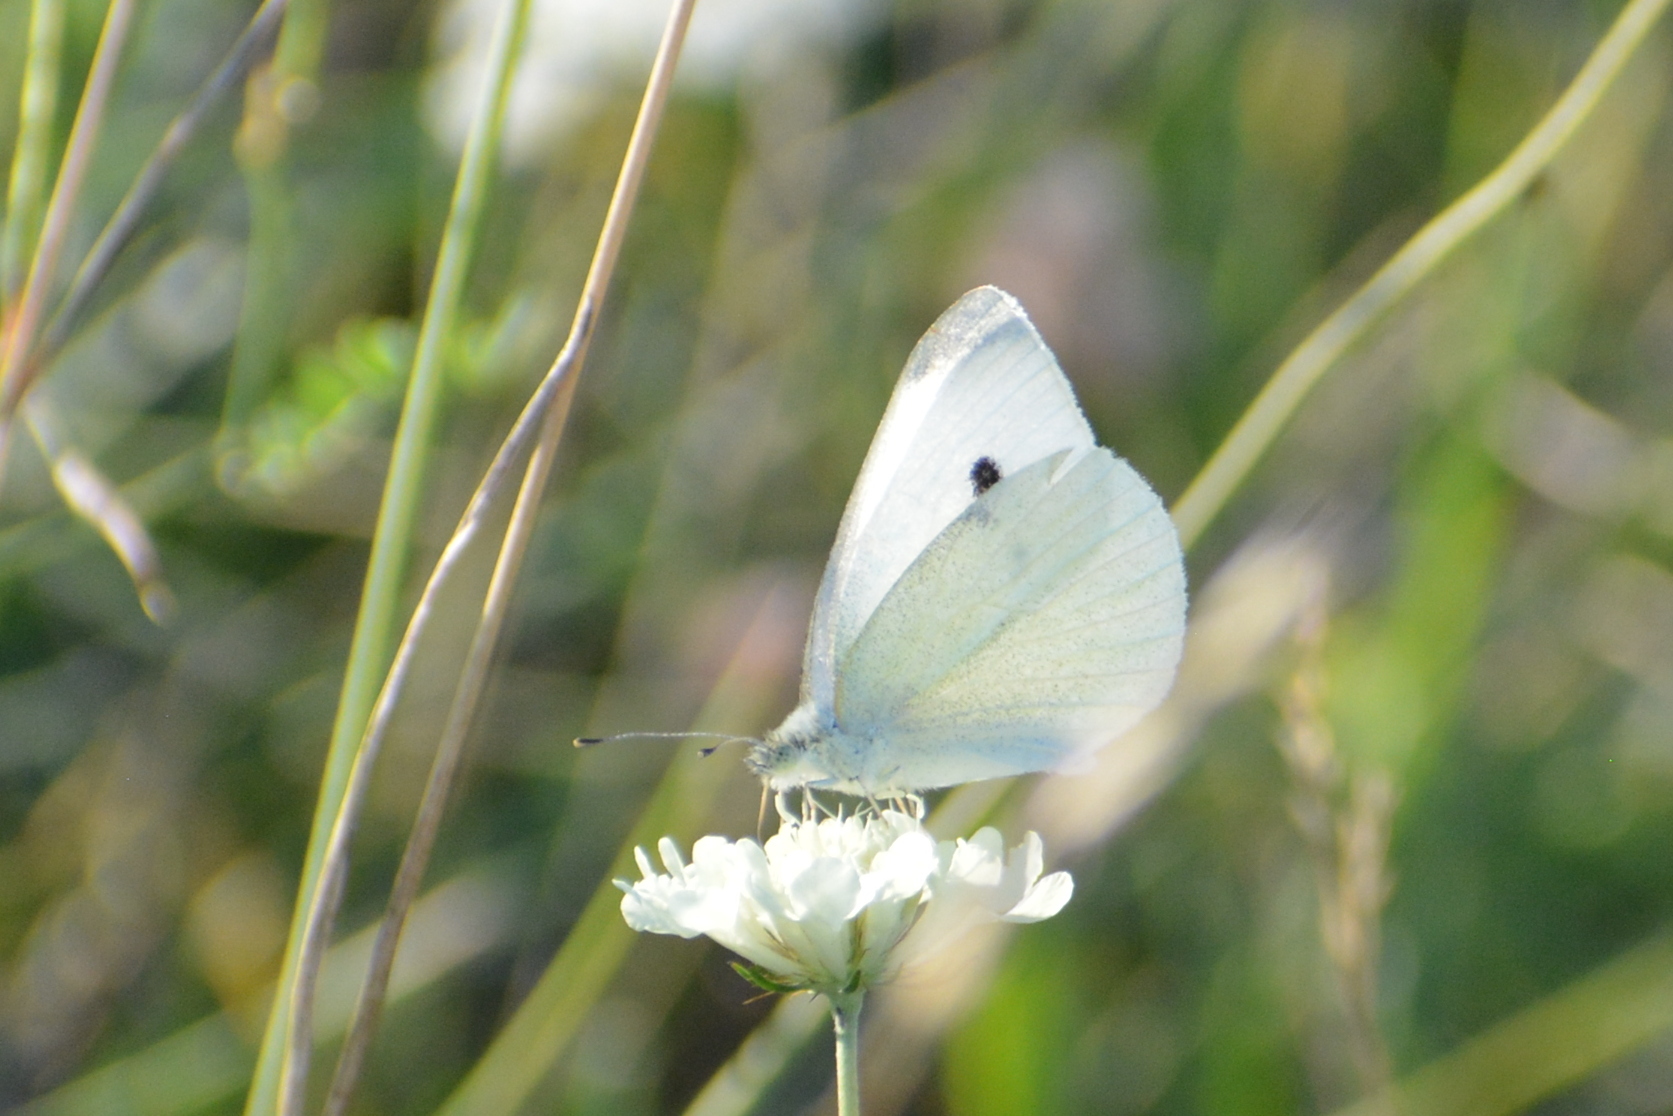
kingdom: Animalia
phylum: Arthropoda
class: Insecta
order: Lepidoptera
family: Pieridae
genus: Pieris
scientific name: Pieris rapae
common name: Small white
